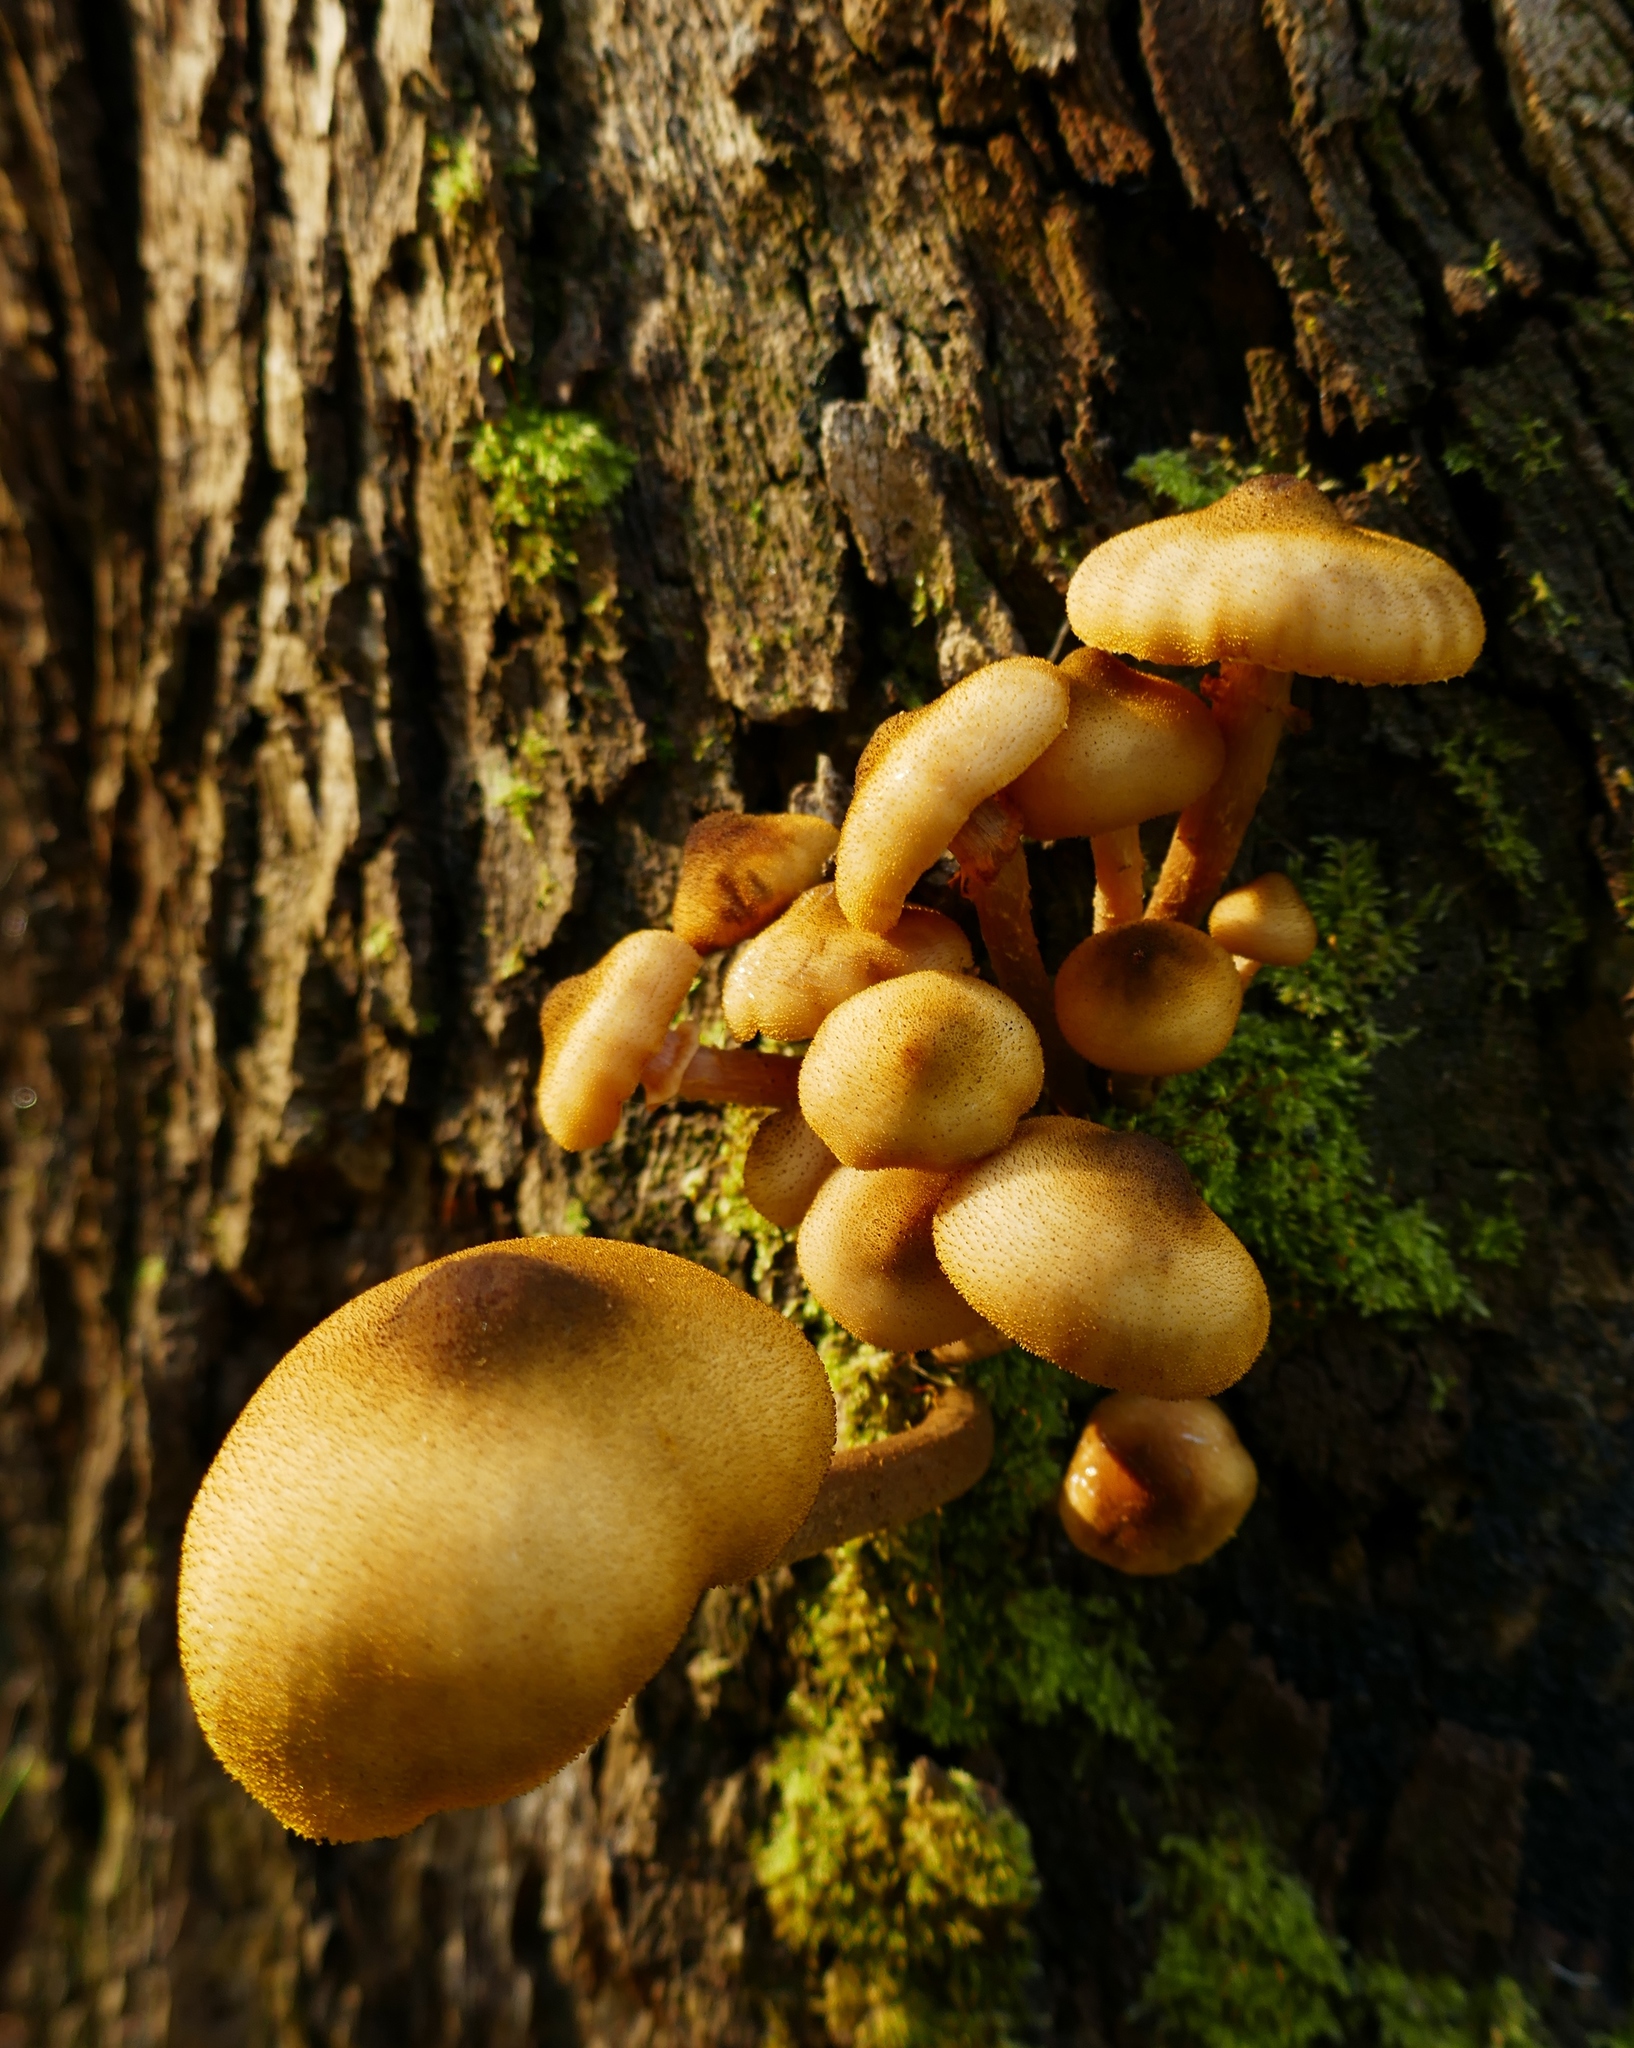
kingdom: Fungi
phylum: Basidiomycota
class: Agaricomycetes
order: Agaricales
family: Physalacriaceae
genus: Armillaria
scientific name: Armillaria luteobubalina
